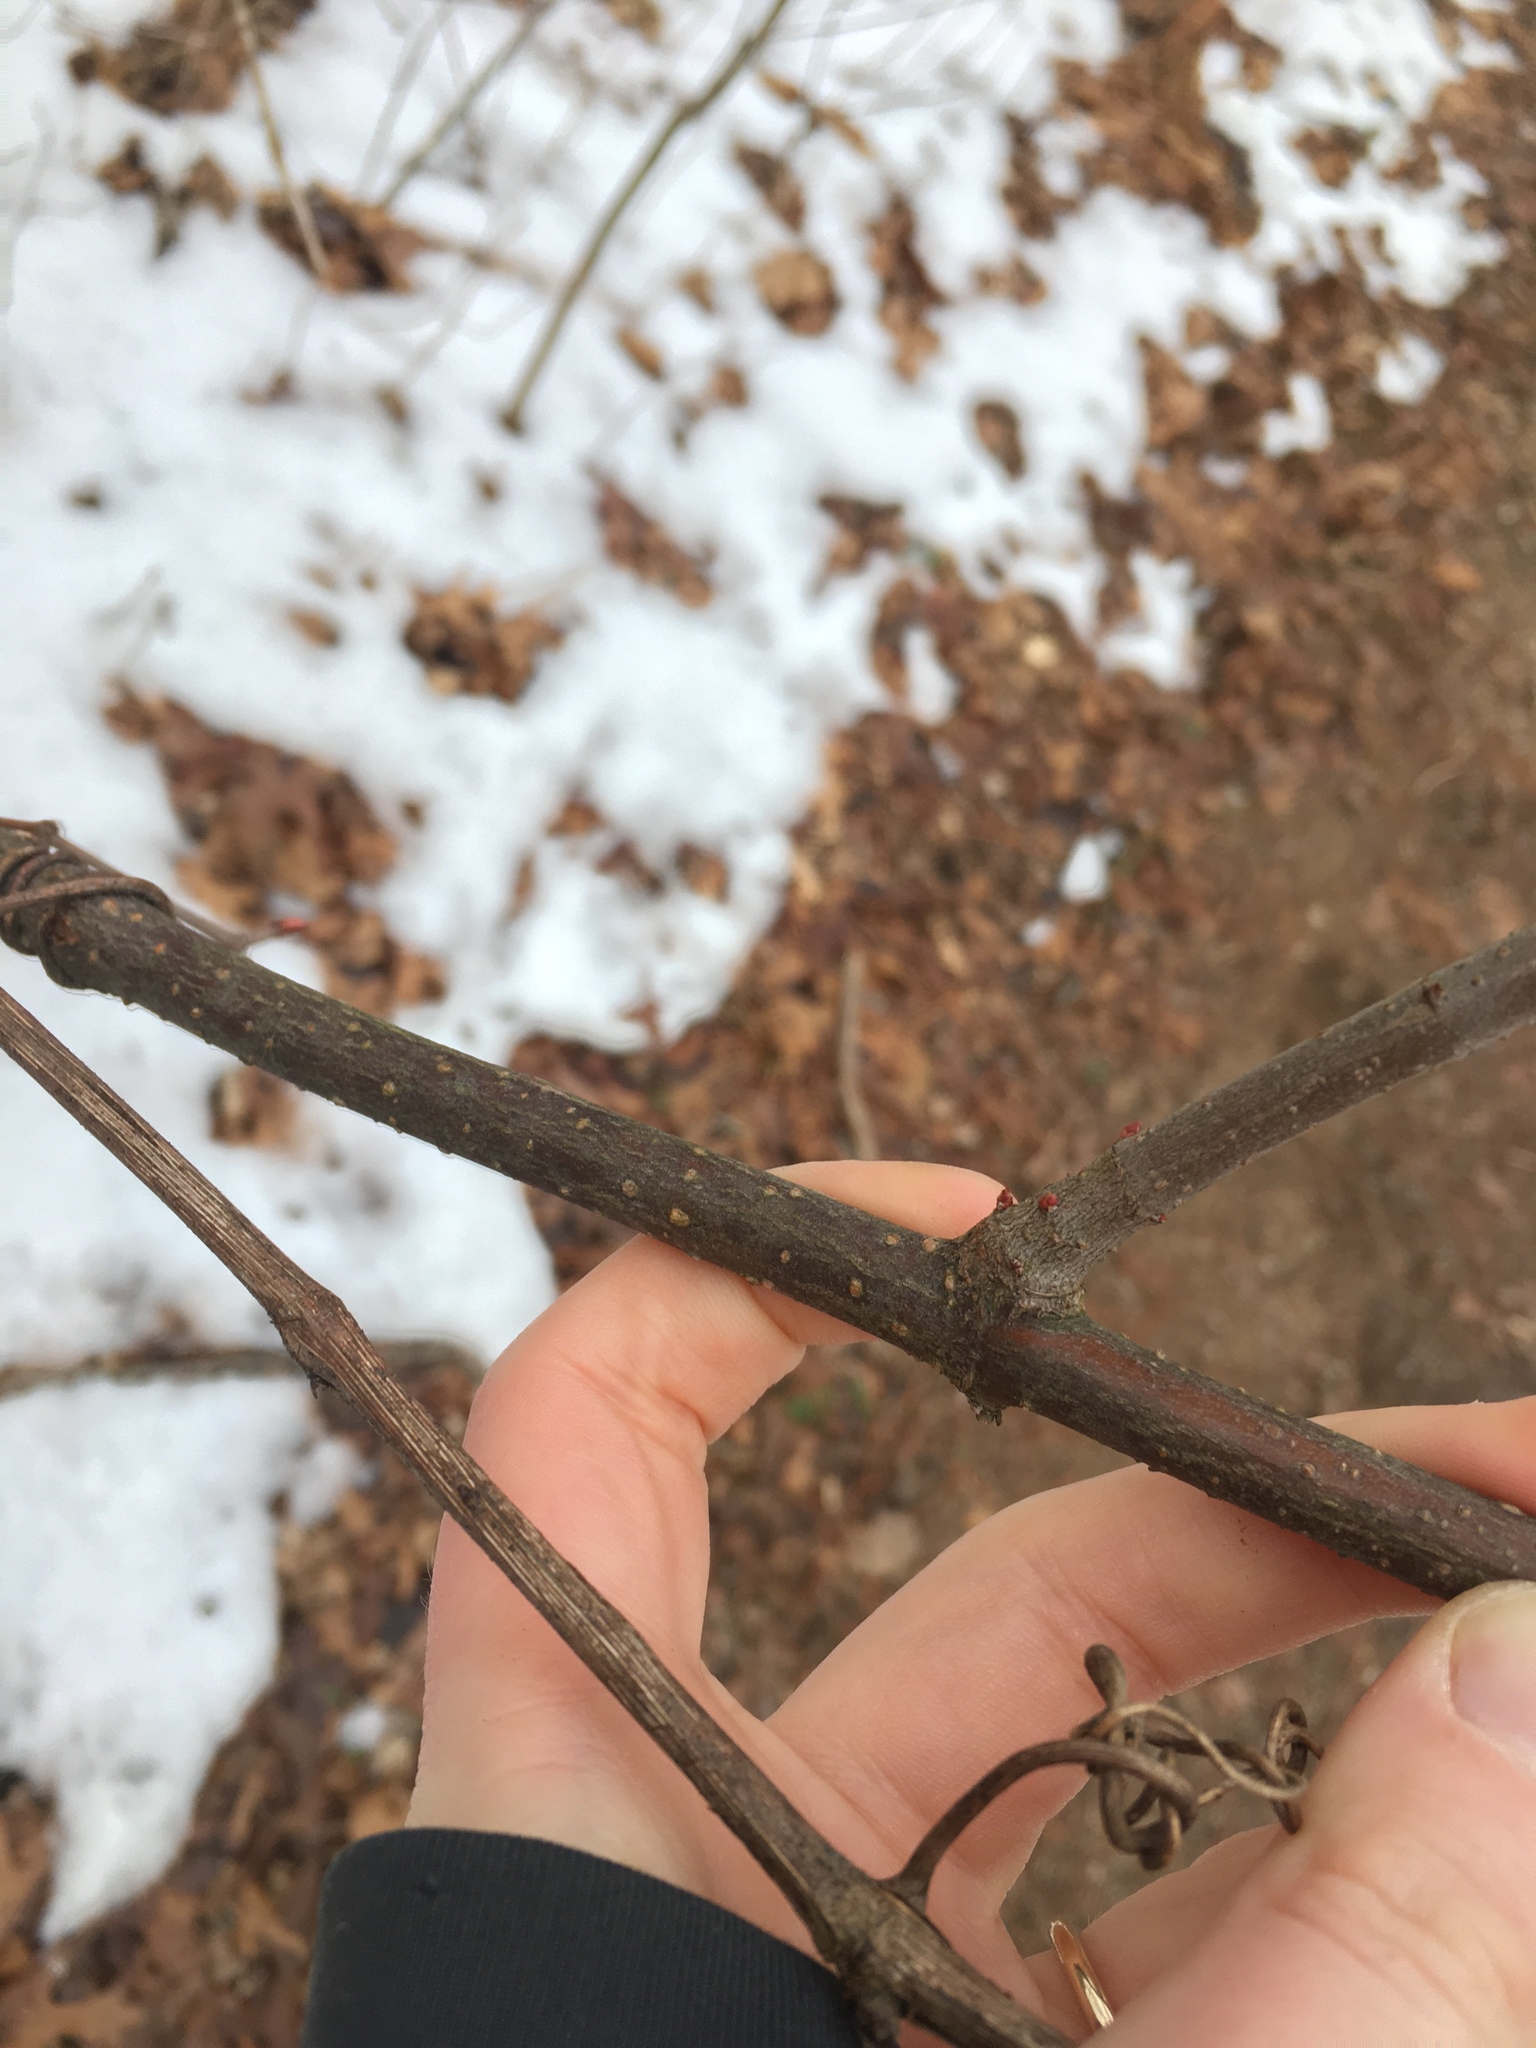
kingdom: Plantae
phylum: Tracheophyta
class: Magnoliopsida
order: Dipsacales
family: Viburnaceae
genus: Viburnum
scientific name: Viburnum acerifolium
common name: Dockmackie
